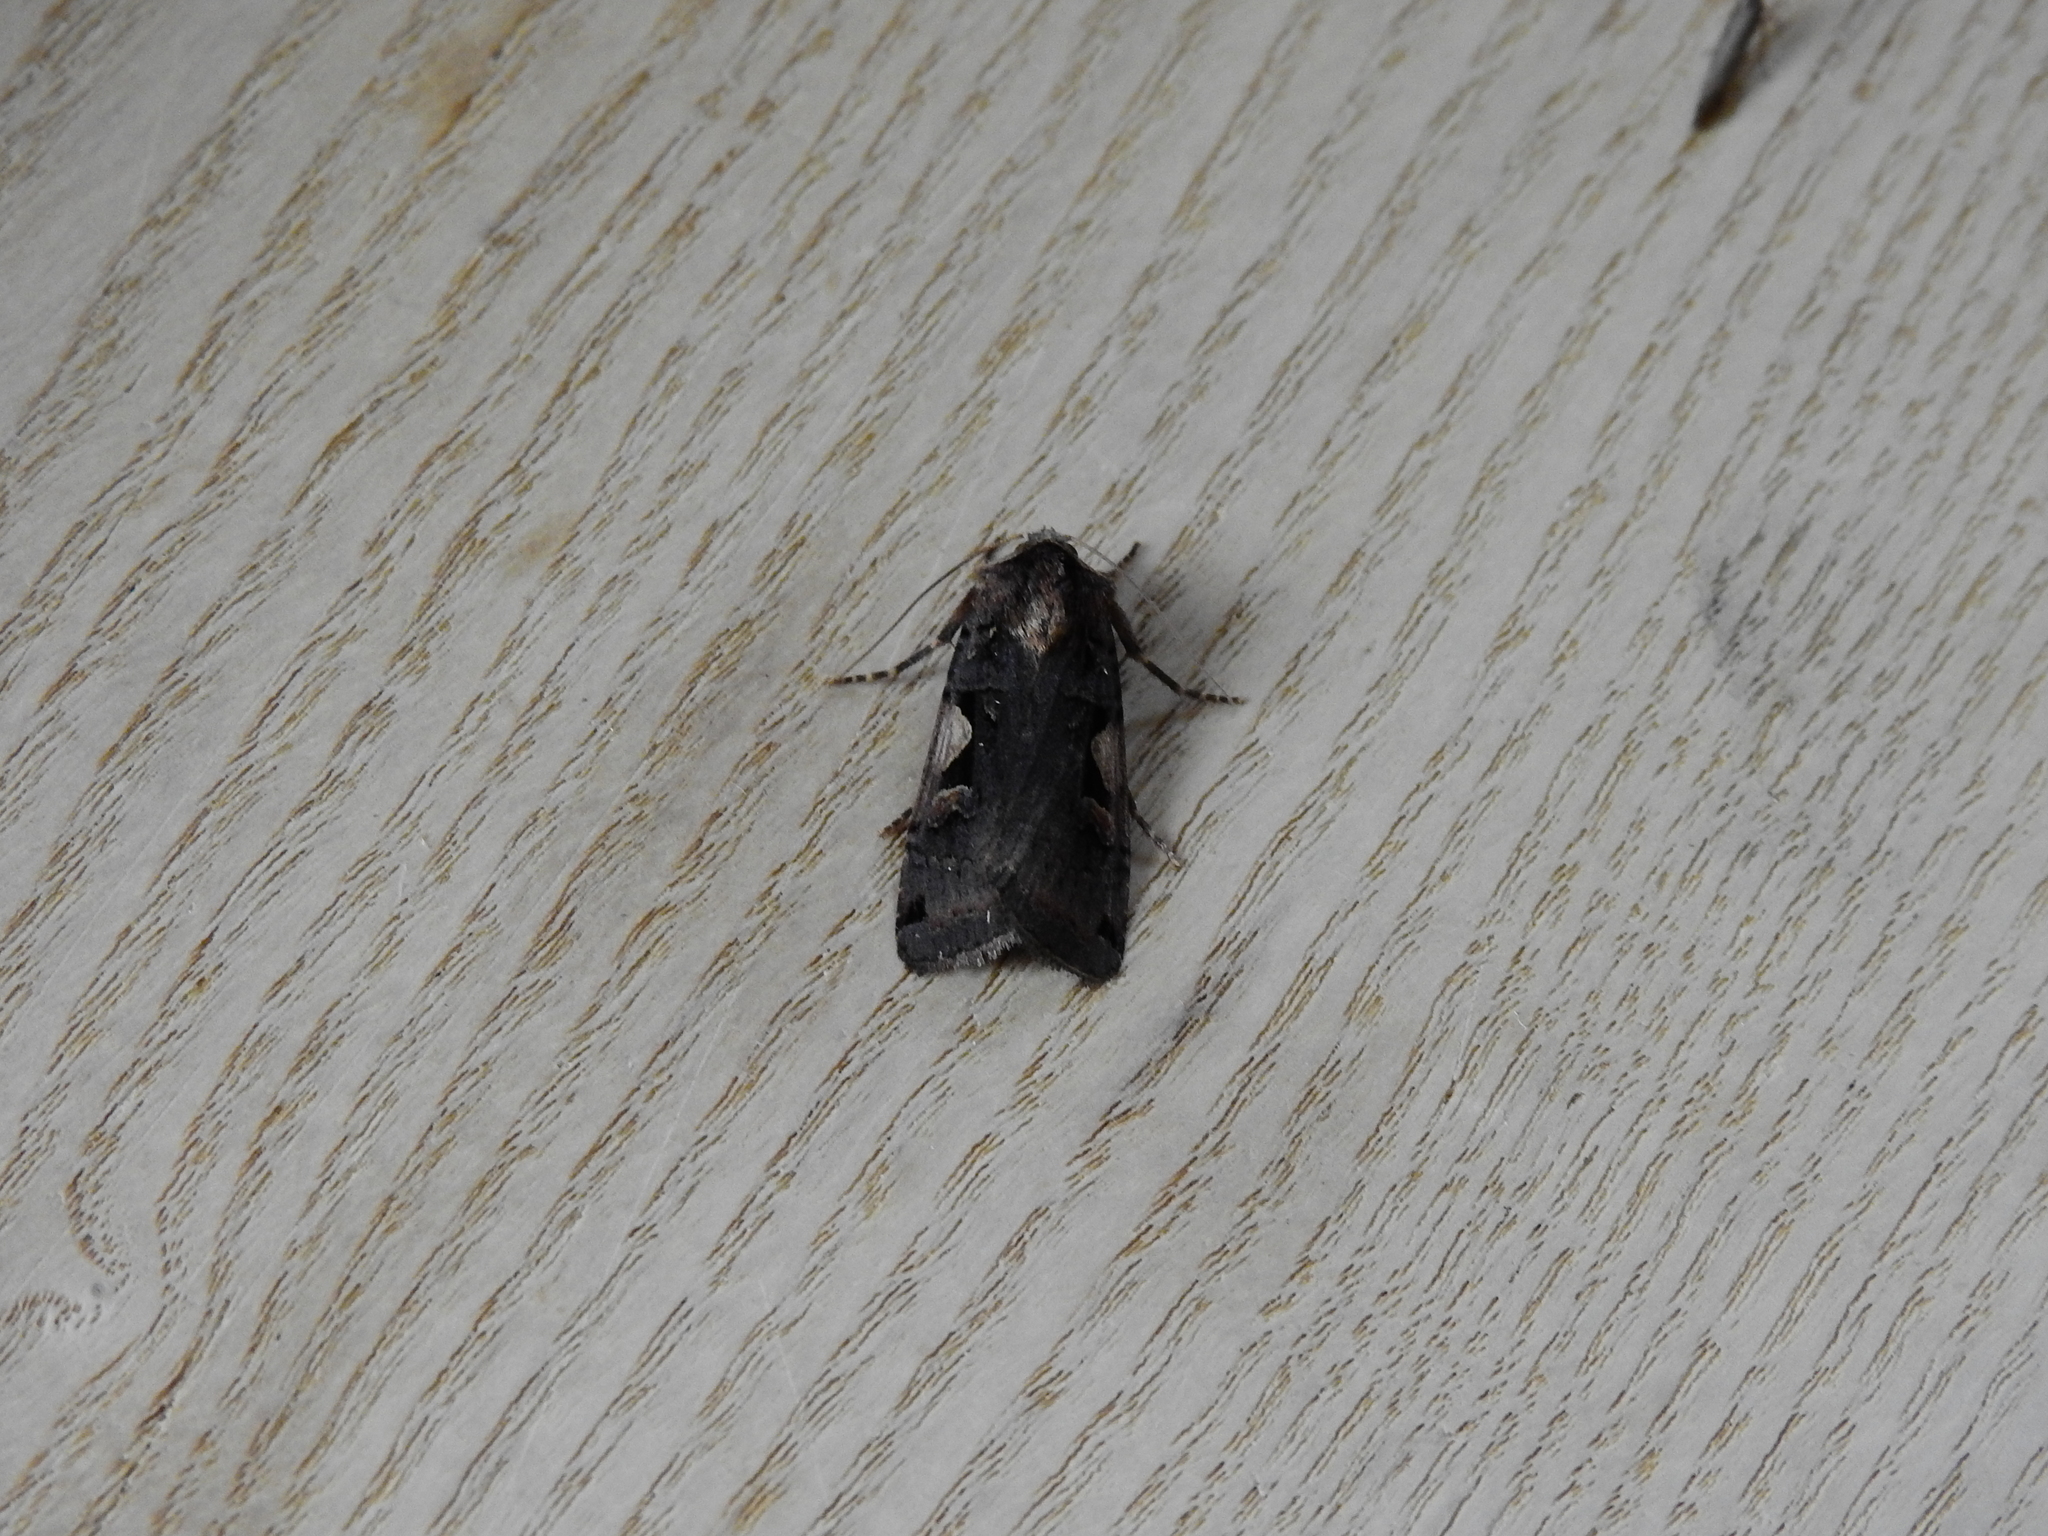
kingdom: Animalia
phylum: Arthropoda
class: Insecta
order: Lepidoptera
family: Noctuidae
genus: Xestia
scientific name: Xestia c-nigrum
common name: Setaceous hebrew character
